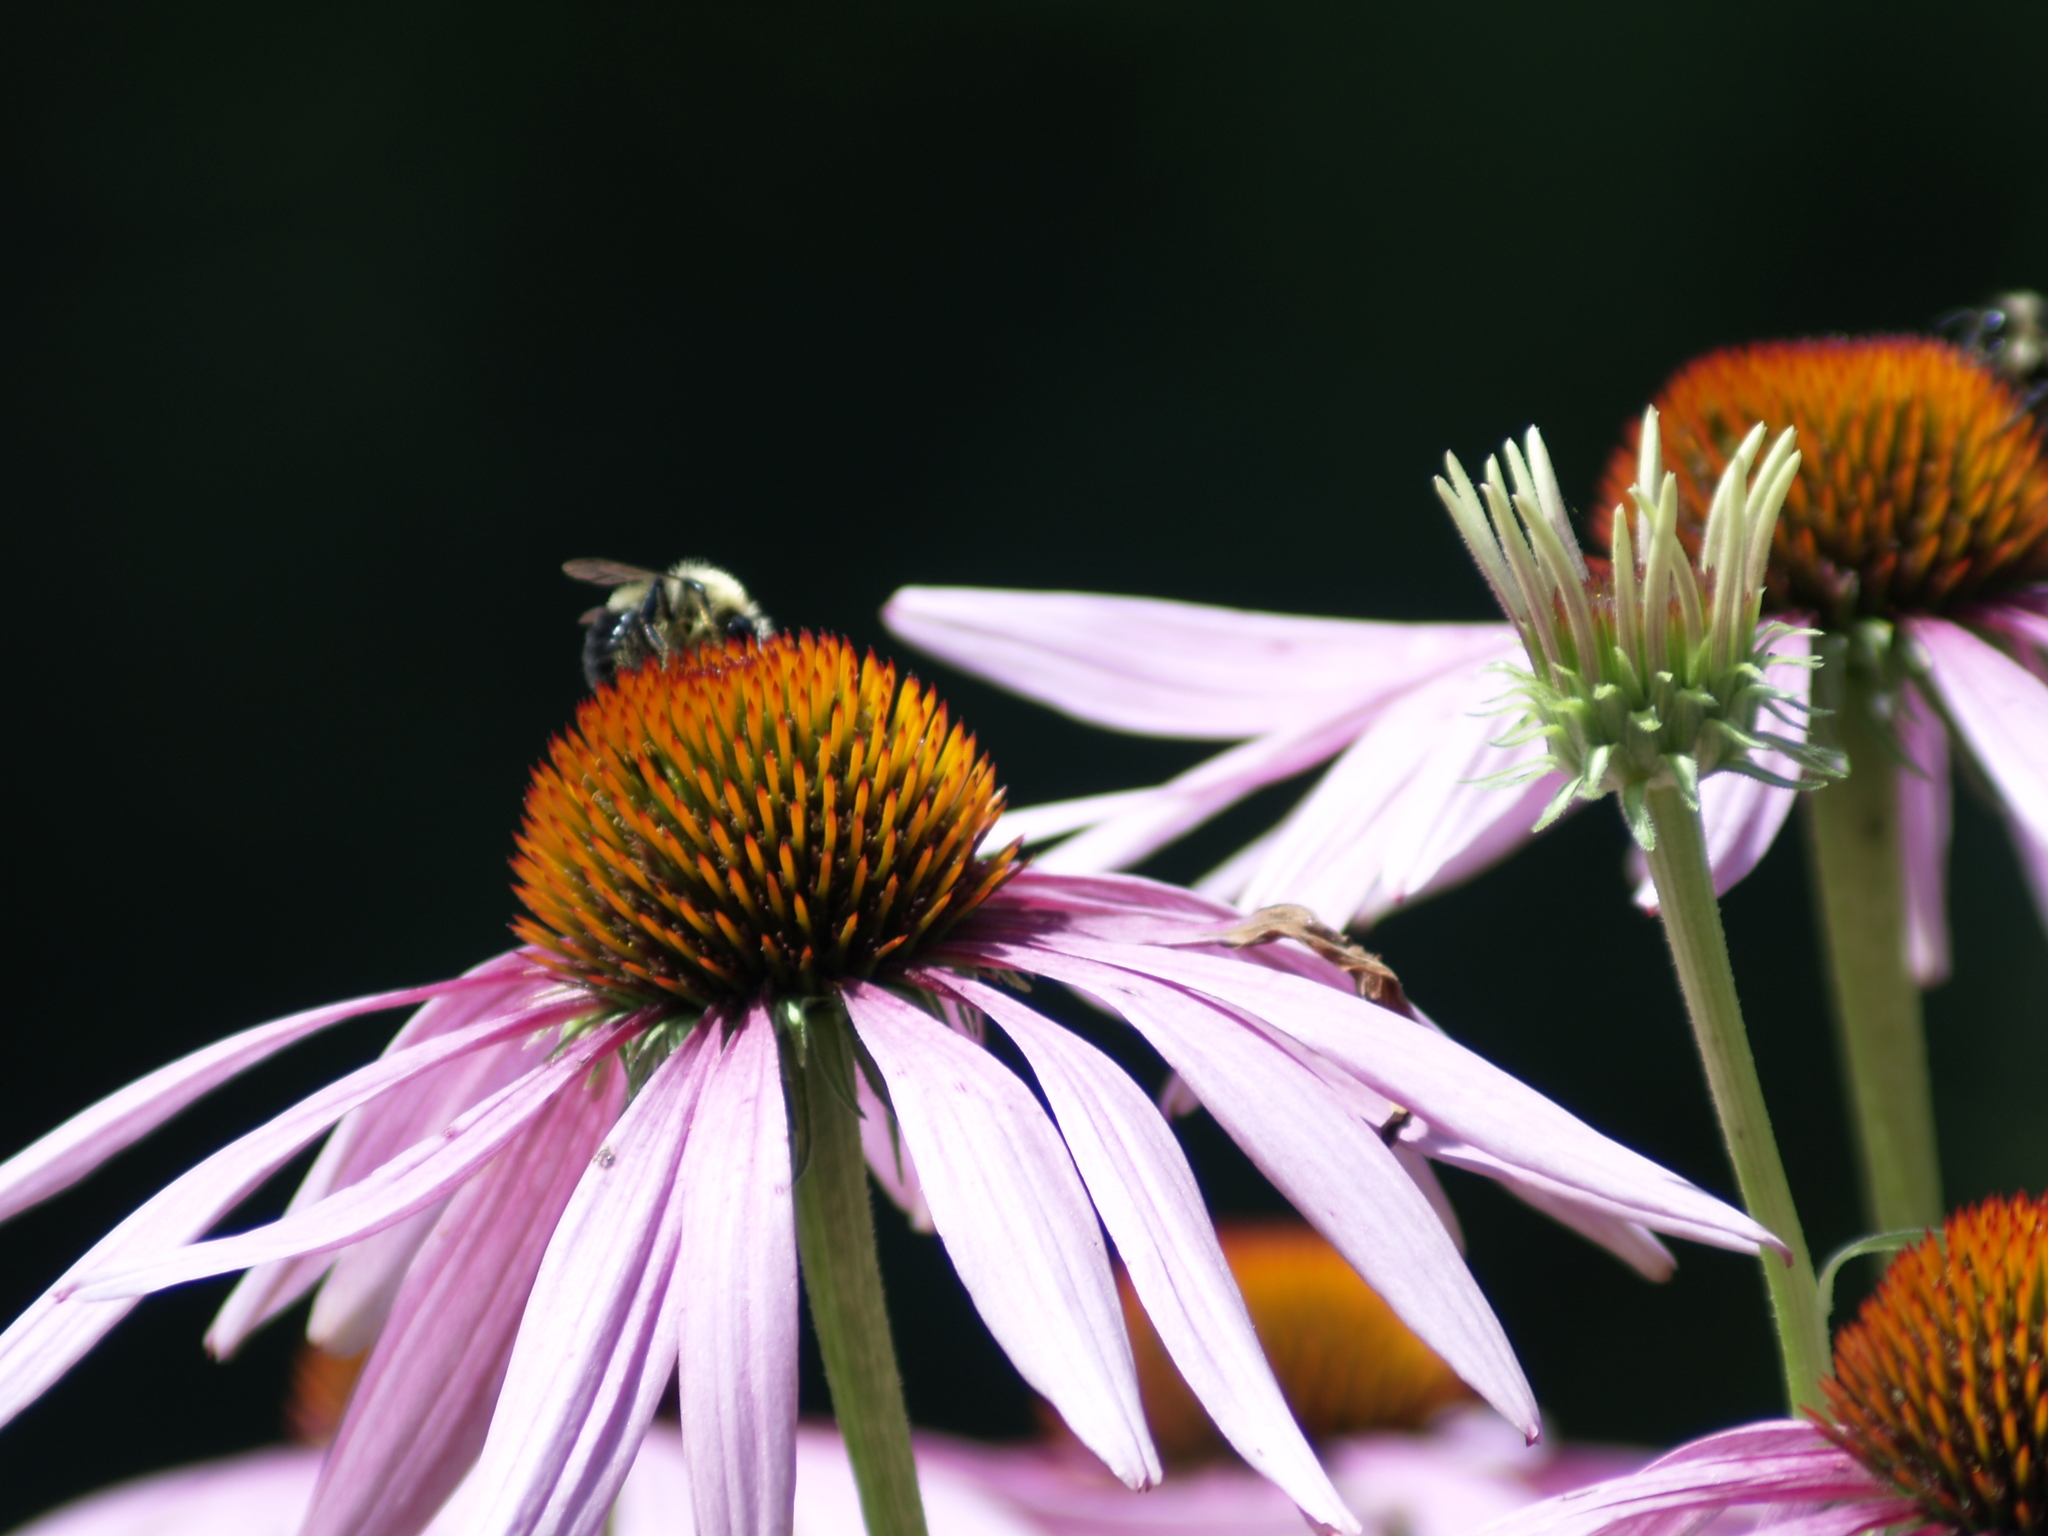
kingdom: Animalia
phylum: Arthropoda
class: Insecta
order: Hymenoptera
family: Apidae
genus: Bombus
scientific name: Bombus impatiens
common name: Common eastern bumble bee
